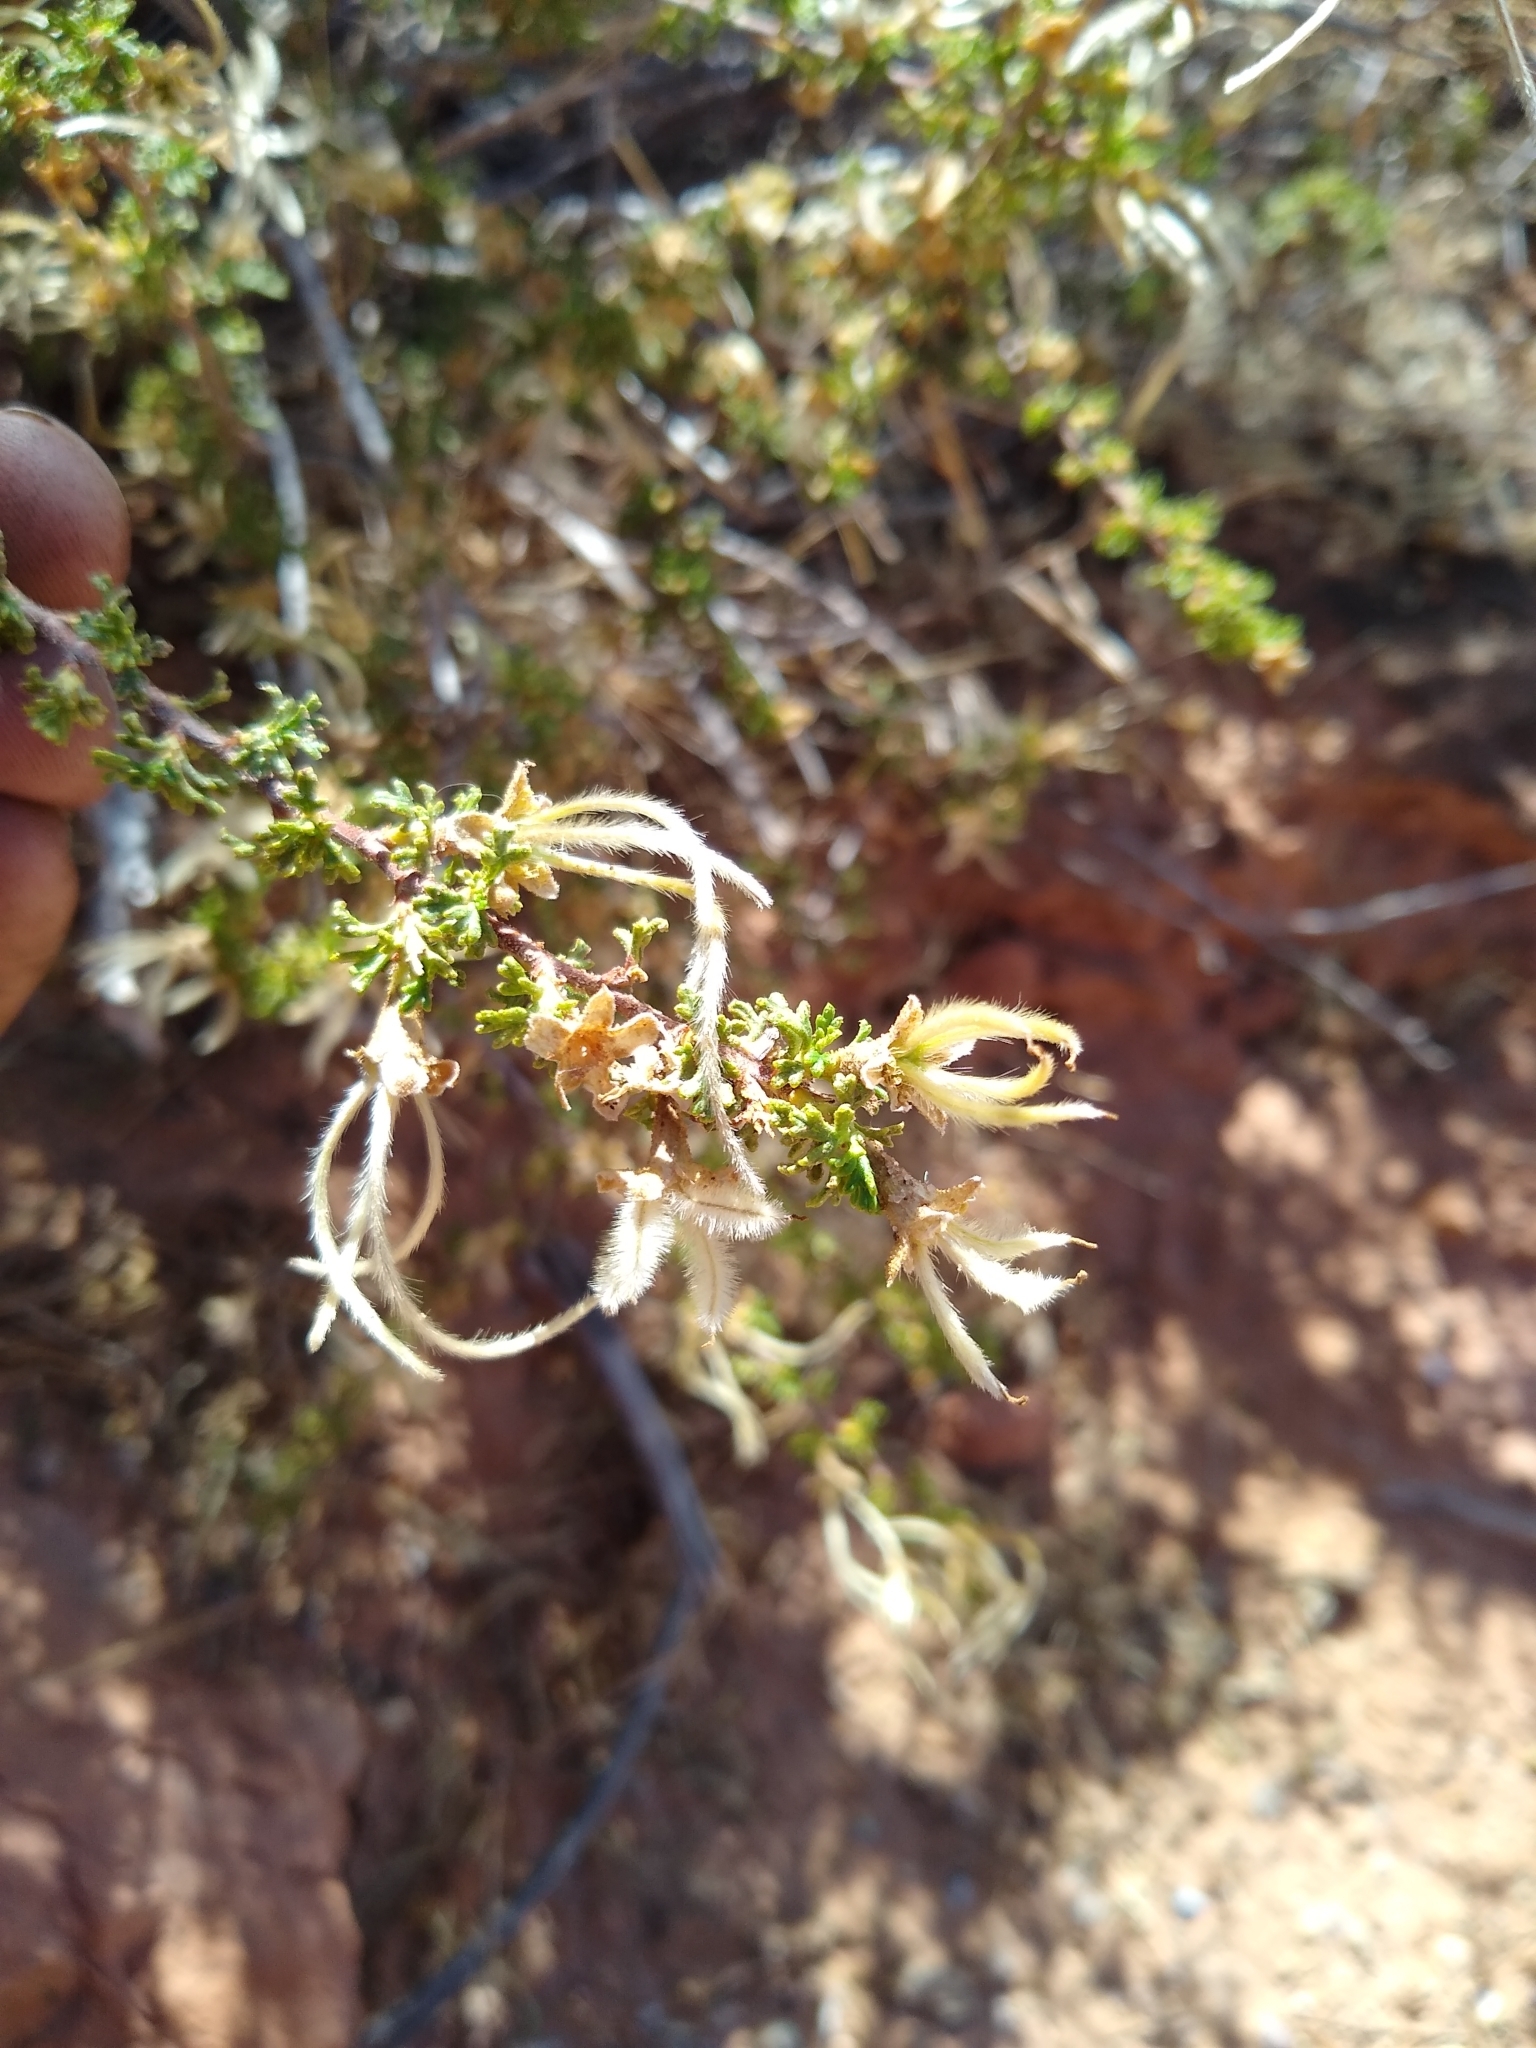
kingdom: Plantae
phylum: Tracheophyta
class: Magnoliopsida
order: Rosales
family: Rosaceae
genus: Purshia
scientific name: Purshia stansburiana
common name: Stansbury's cliffrose
